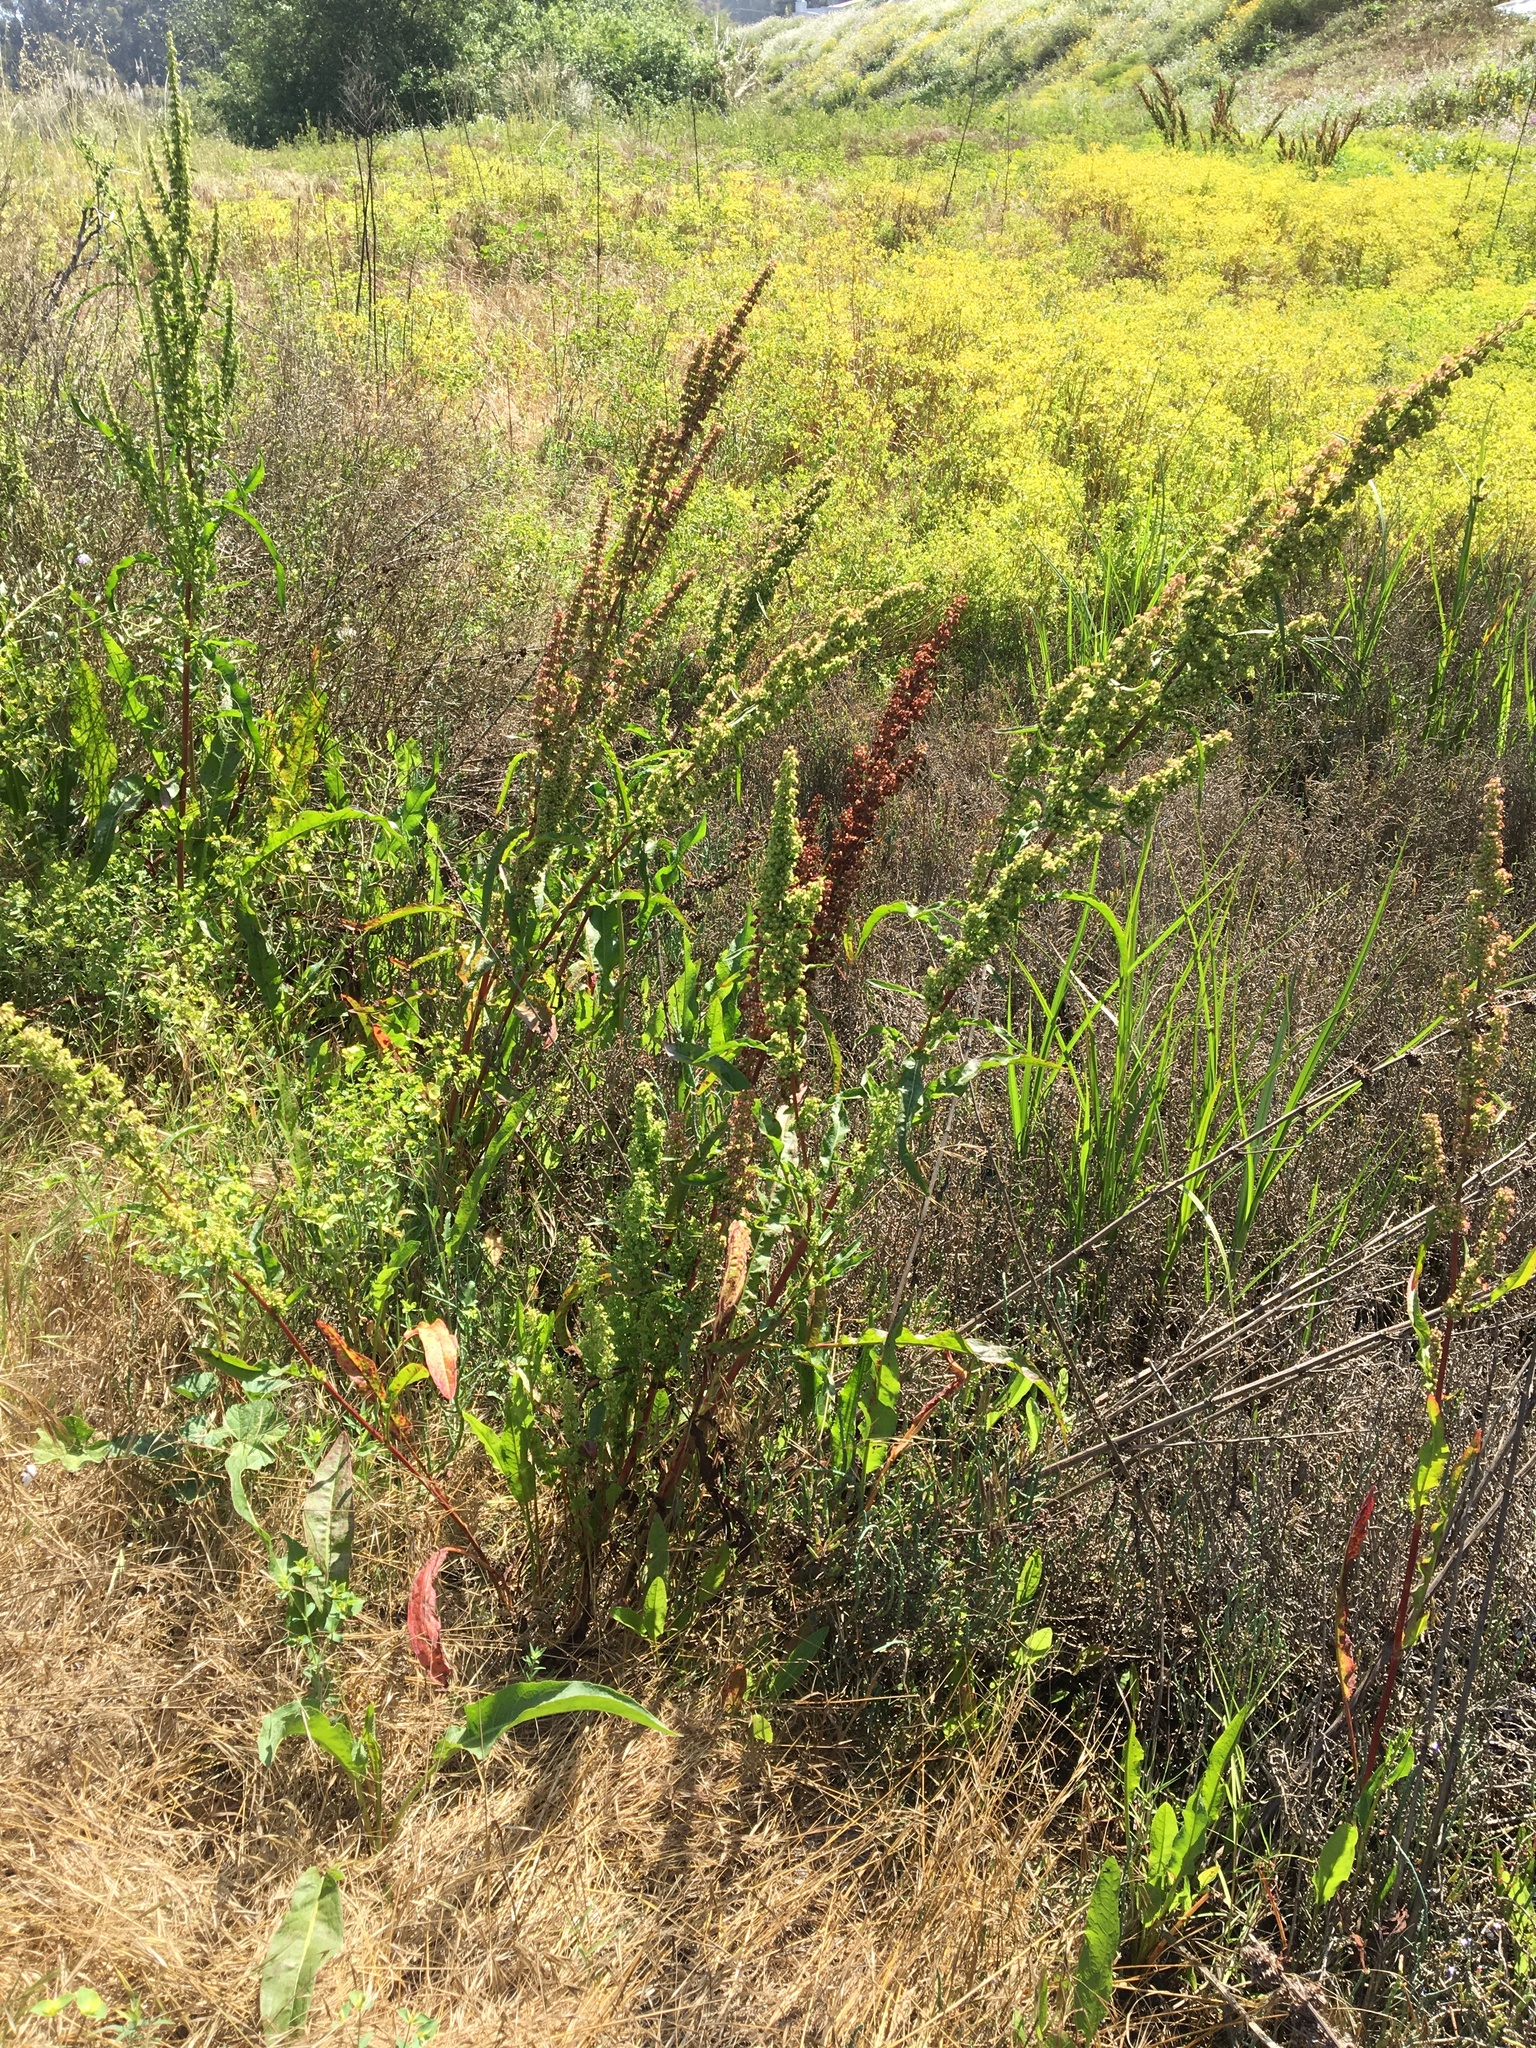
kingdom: Plantae
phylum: Tracheophyta
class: Magnoliopsida
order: Caryophyllales
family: Polygonaceae
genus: Rumex
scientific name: Rumex crispus
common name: Curled dock
